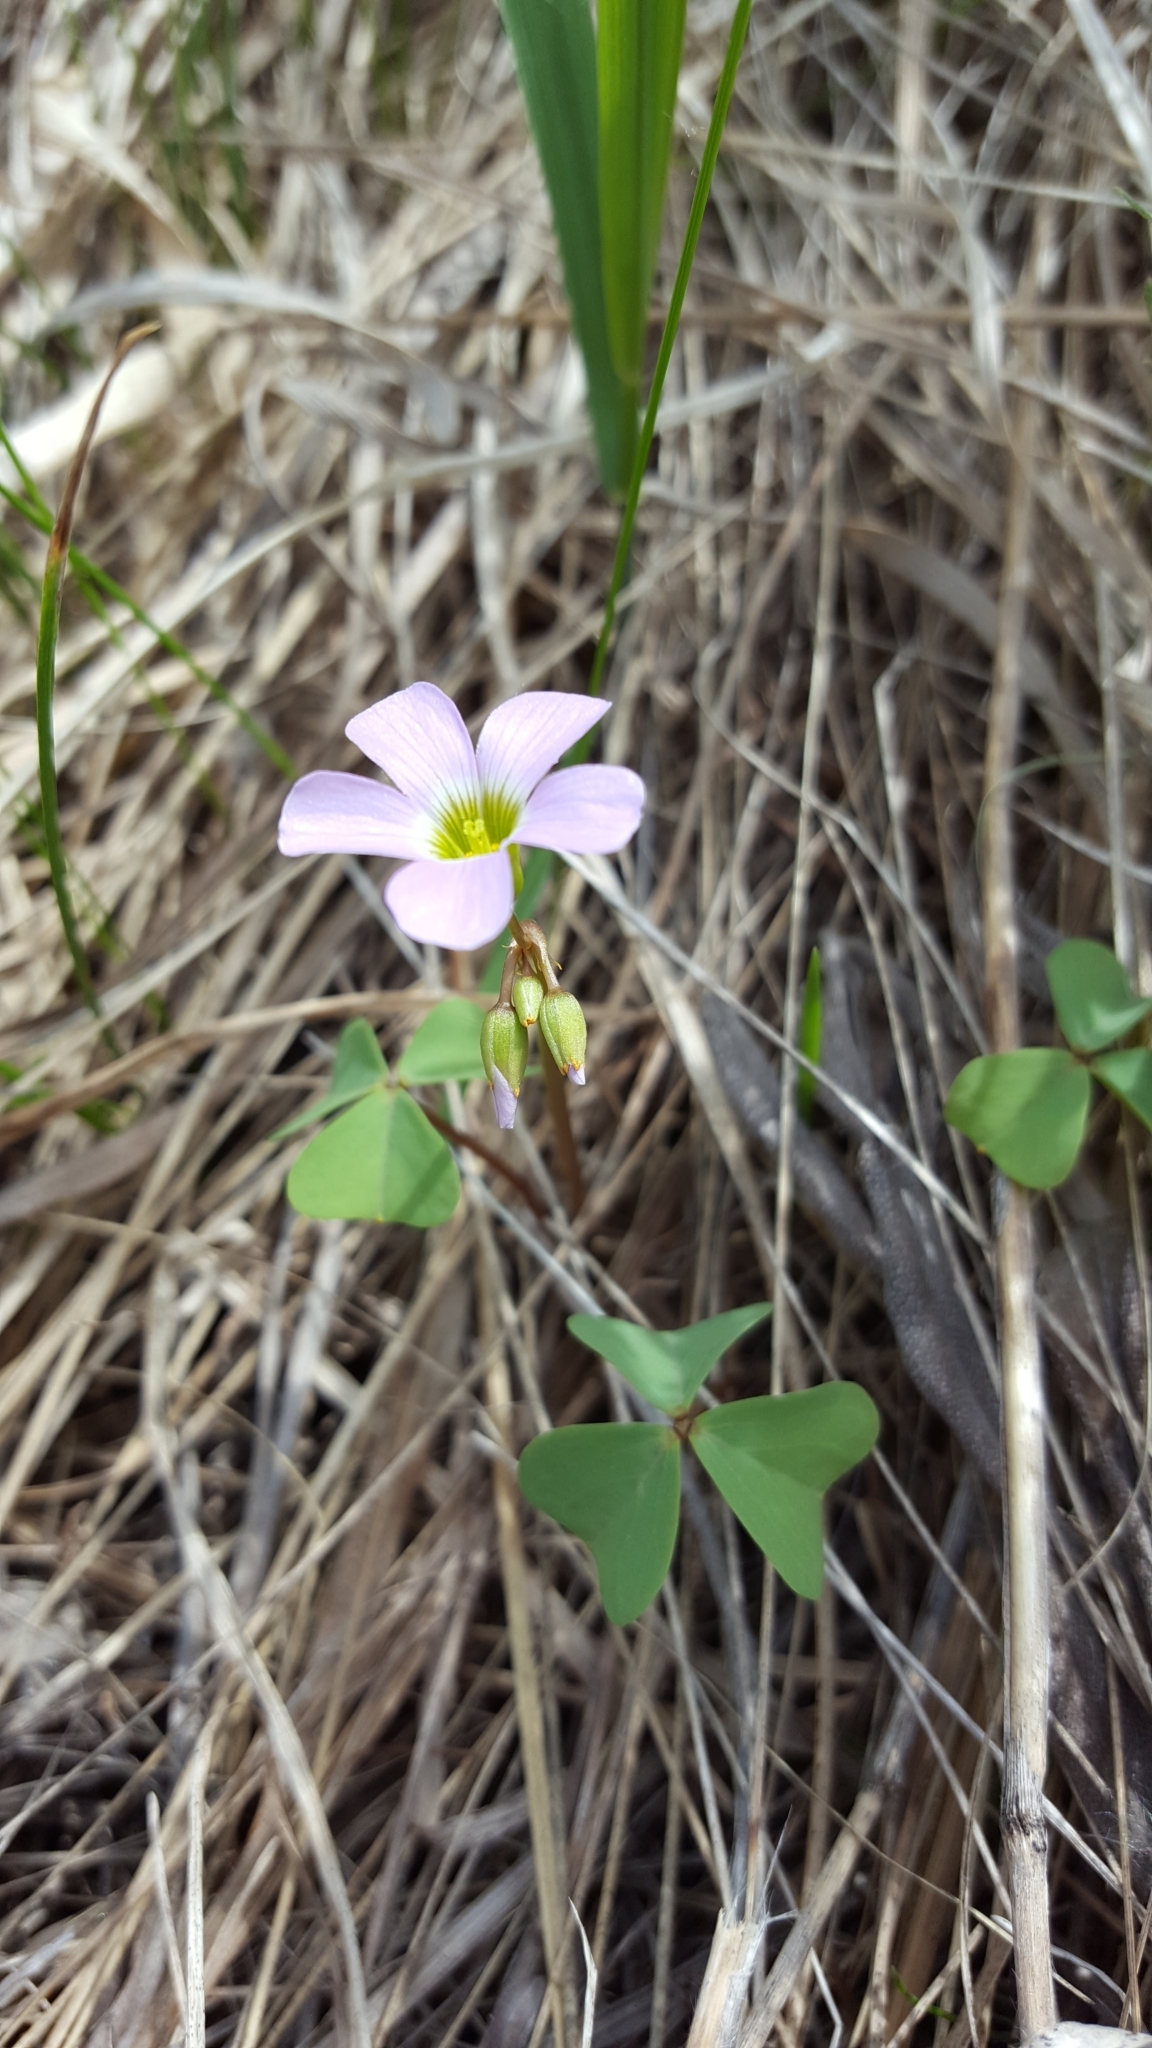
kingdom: Plantae
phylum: Tracheophyta
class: Magnoliopsida
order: Oxalidales
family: Oxalidaceae
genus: Oxalis
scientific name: Oxalis violacea
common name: Violet wood-sorrel
